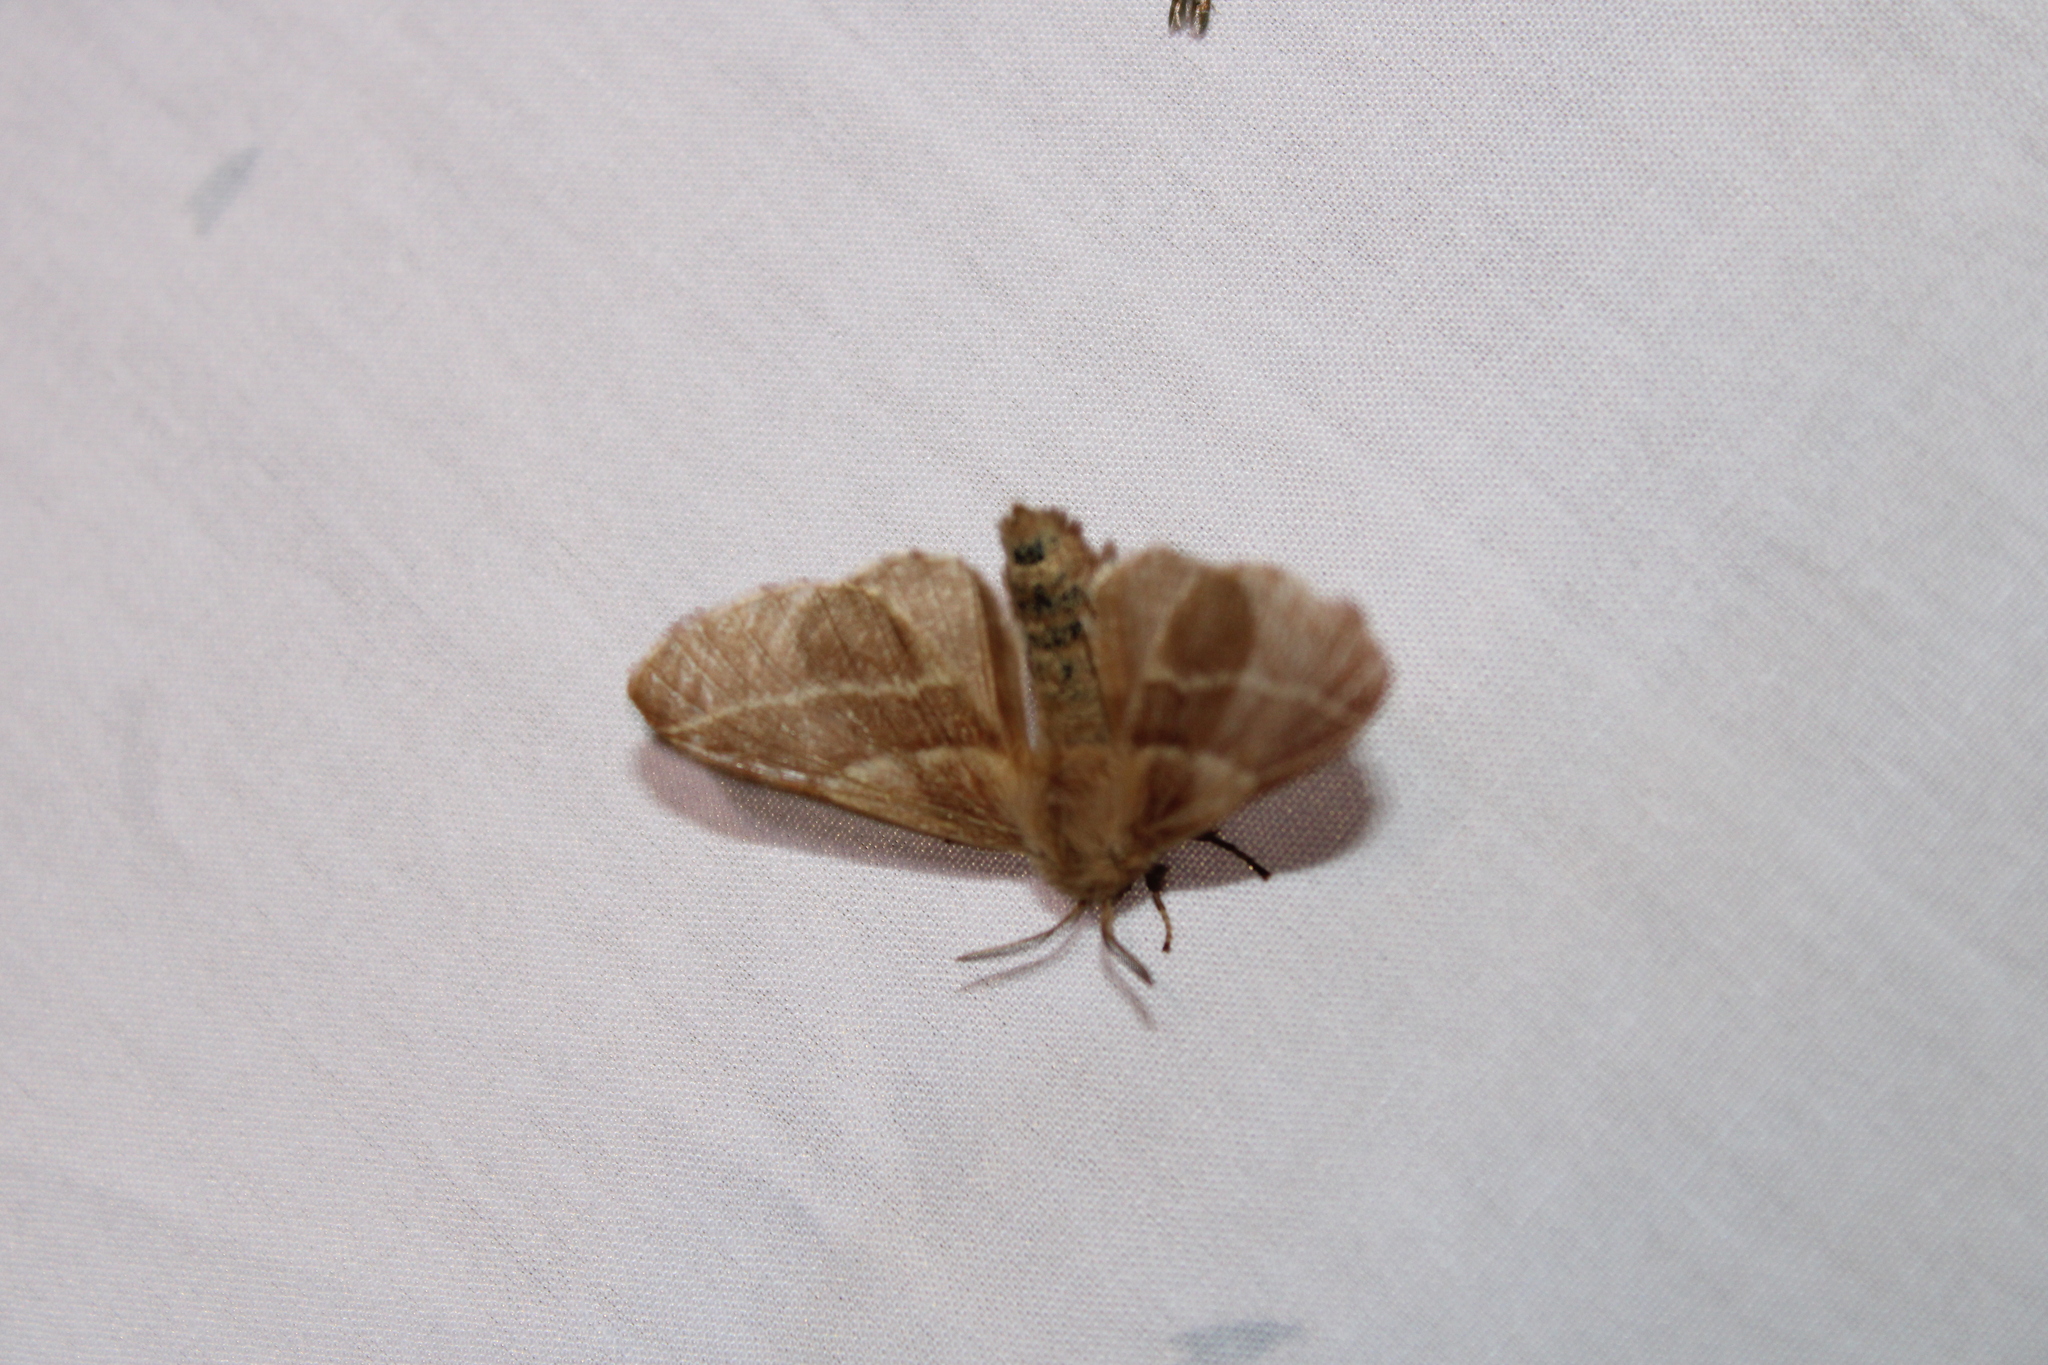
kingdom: Animalia
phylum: Arthropoda
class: Insecta
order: Lepidoptera
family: Lasiocampidae
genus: Malacosoma
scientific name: Malacosoma americana
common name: Eastern tent caterpillar moth
